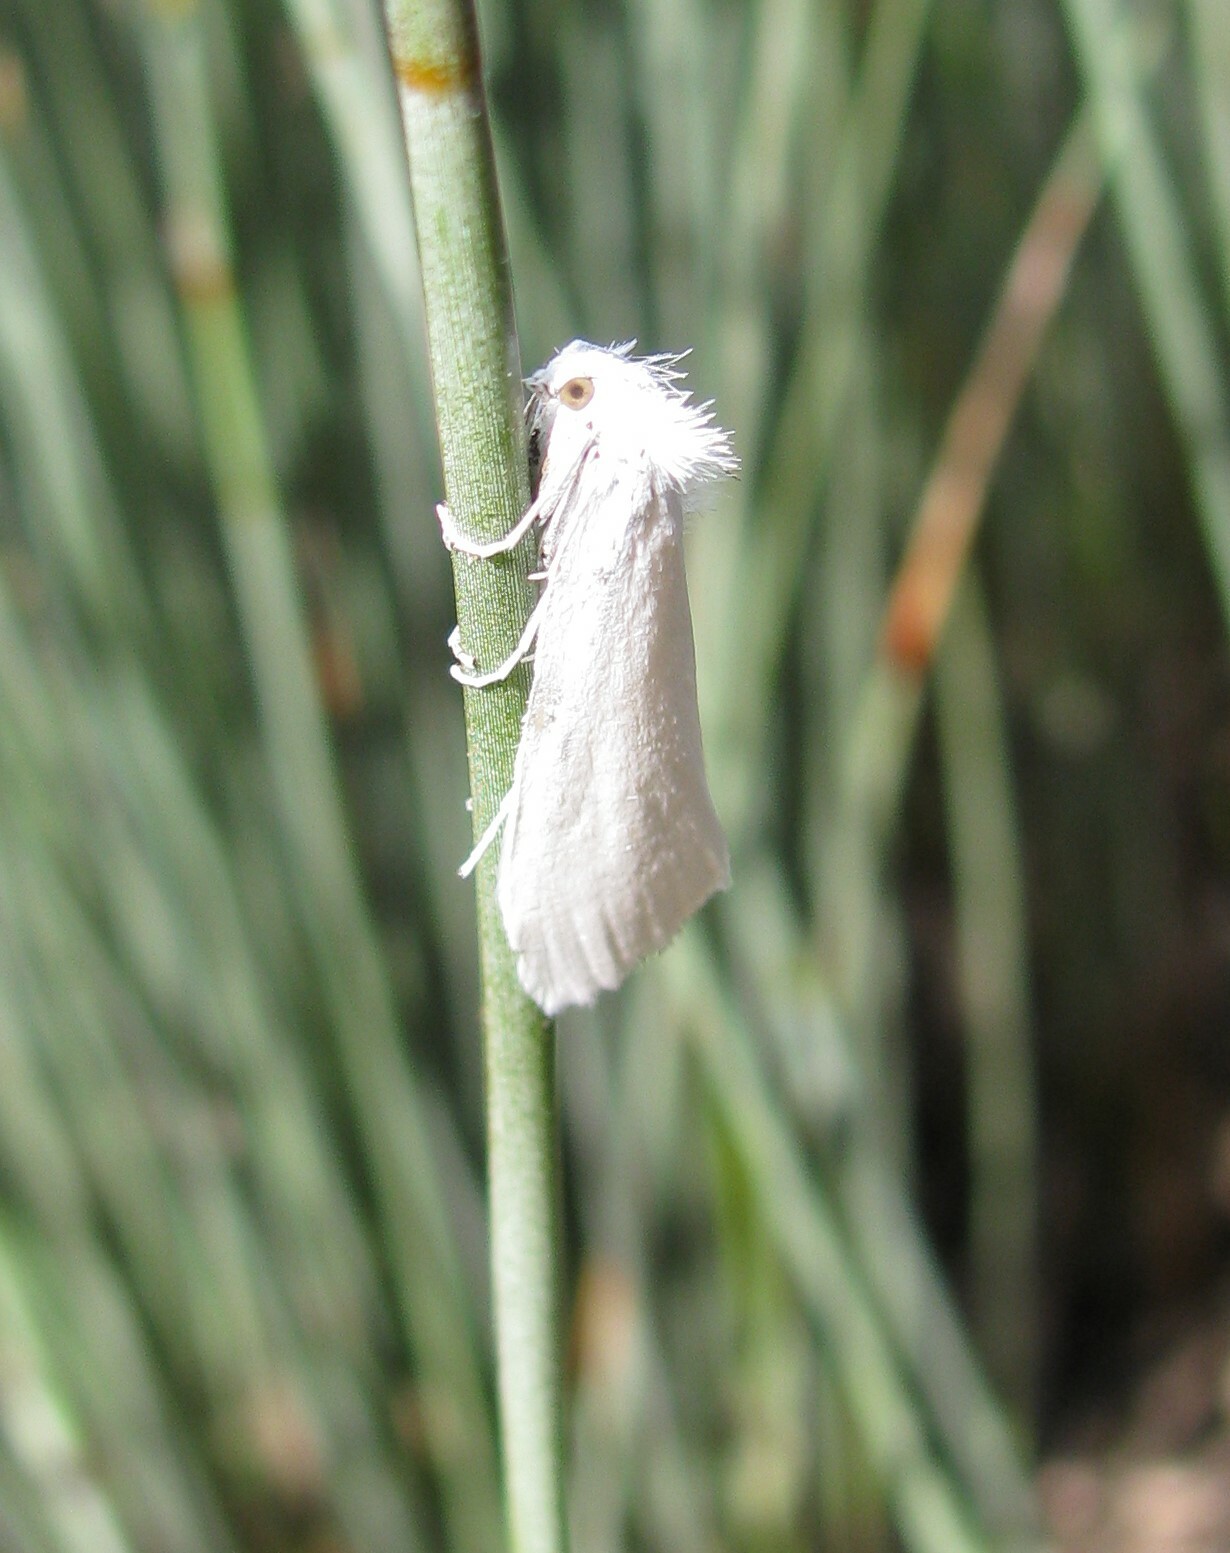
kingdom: Animalia
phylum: Arthropoda
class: Insecta
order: Lepidoptera
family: Crambidae
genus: Tipanaea
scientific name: Tipanaea patulella
